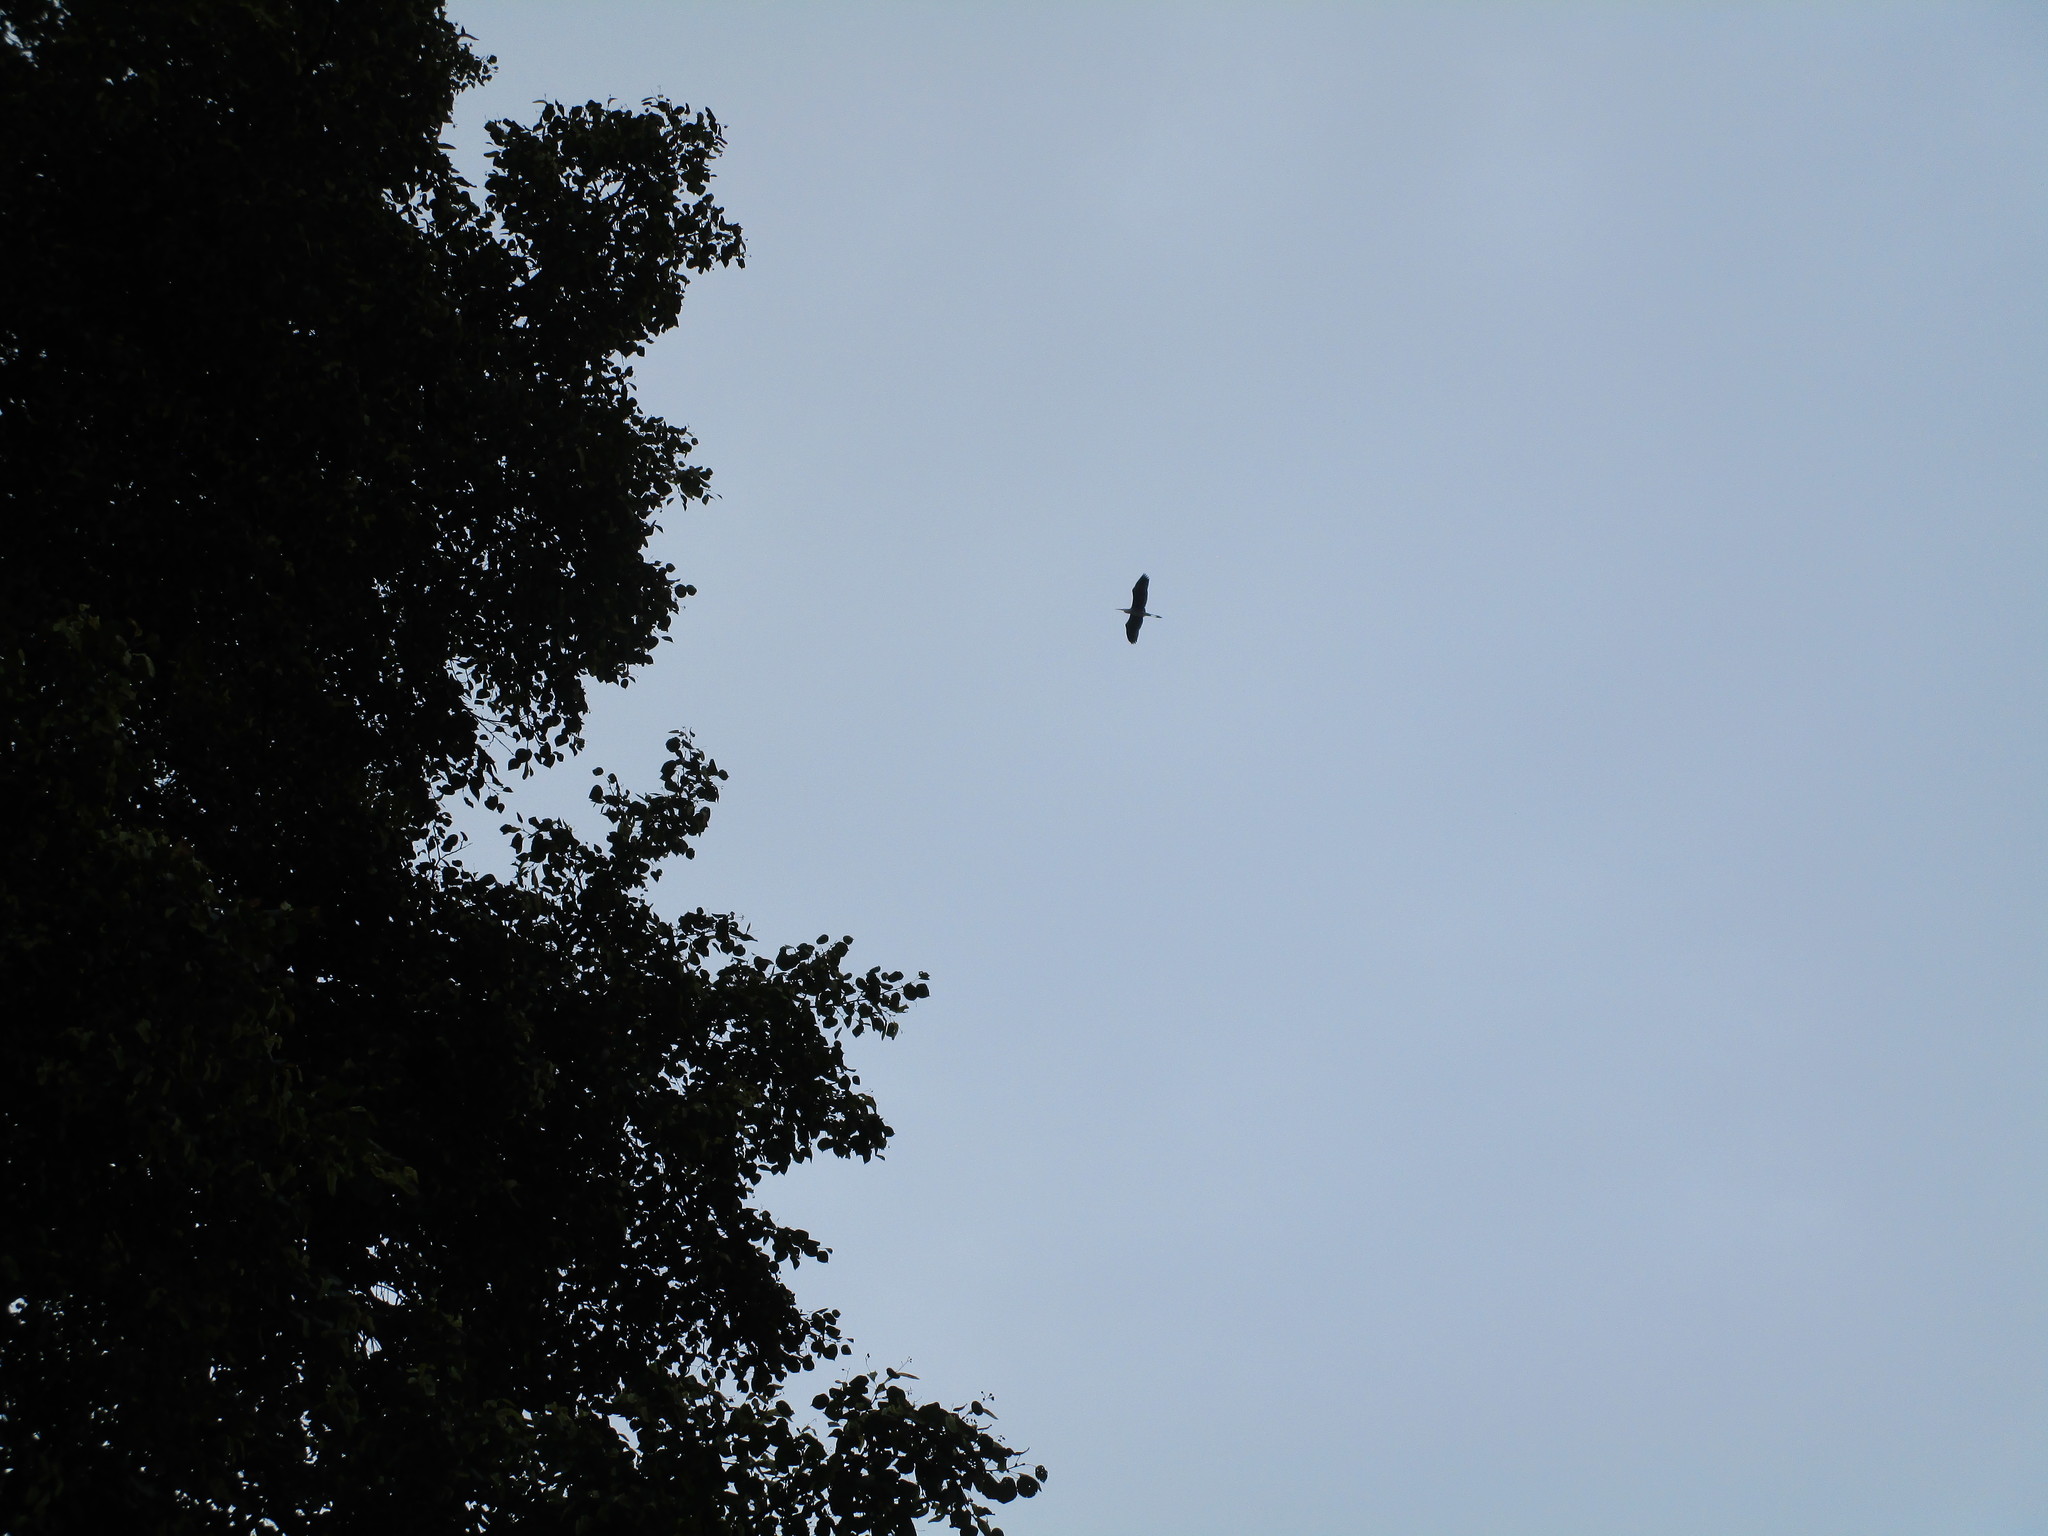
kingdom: Animalia
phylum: Chordata
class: Aves
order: Pelecaniformes
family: Ardeidae
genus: Ardea
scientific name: Ardea herodias
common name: Great blue heron
